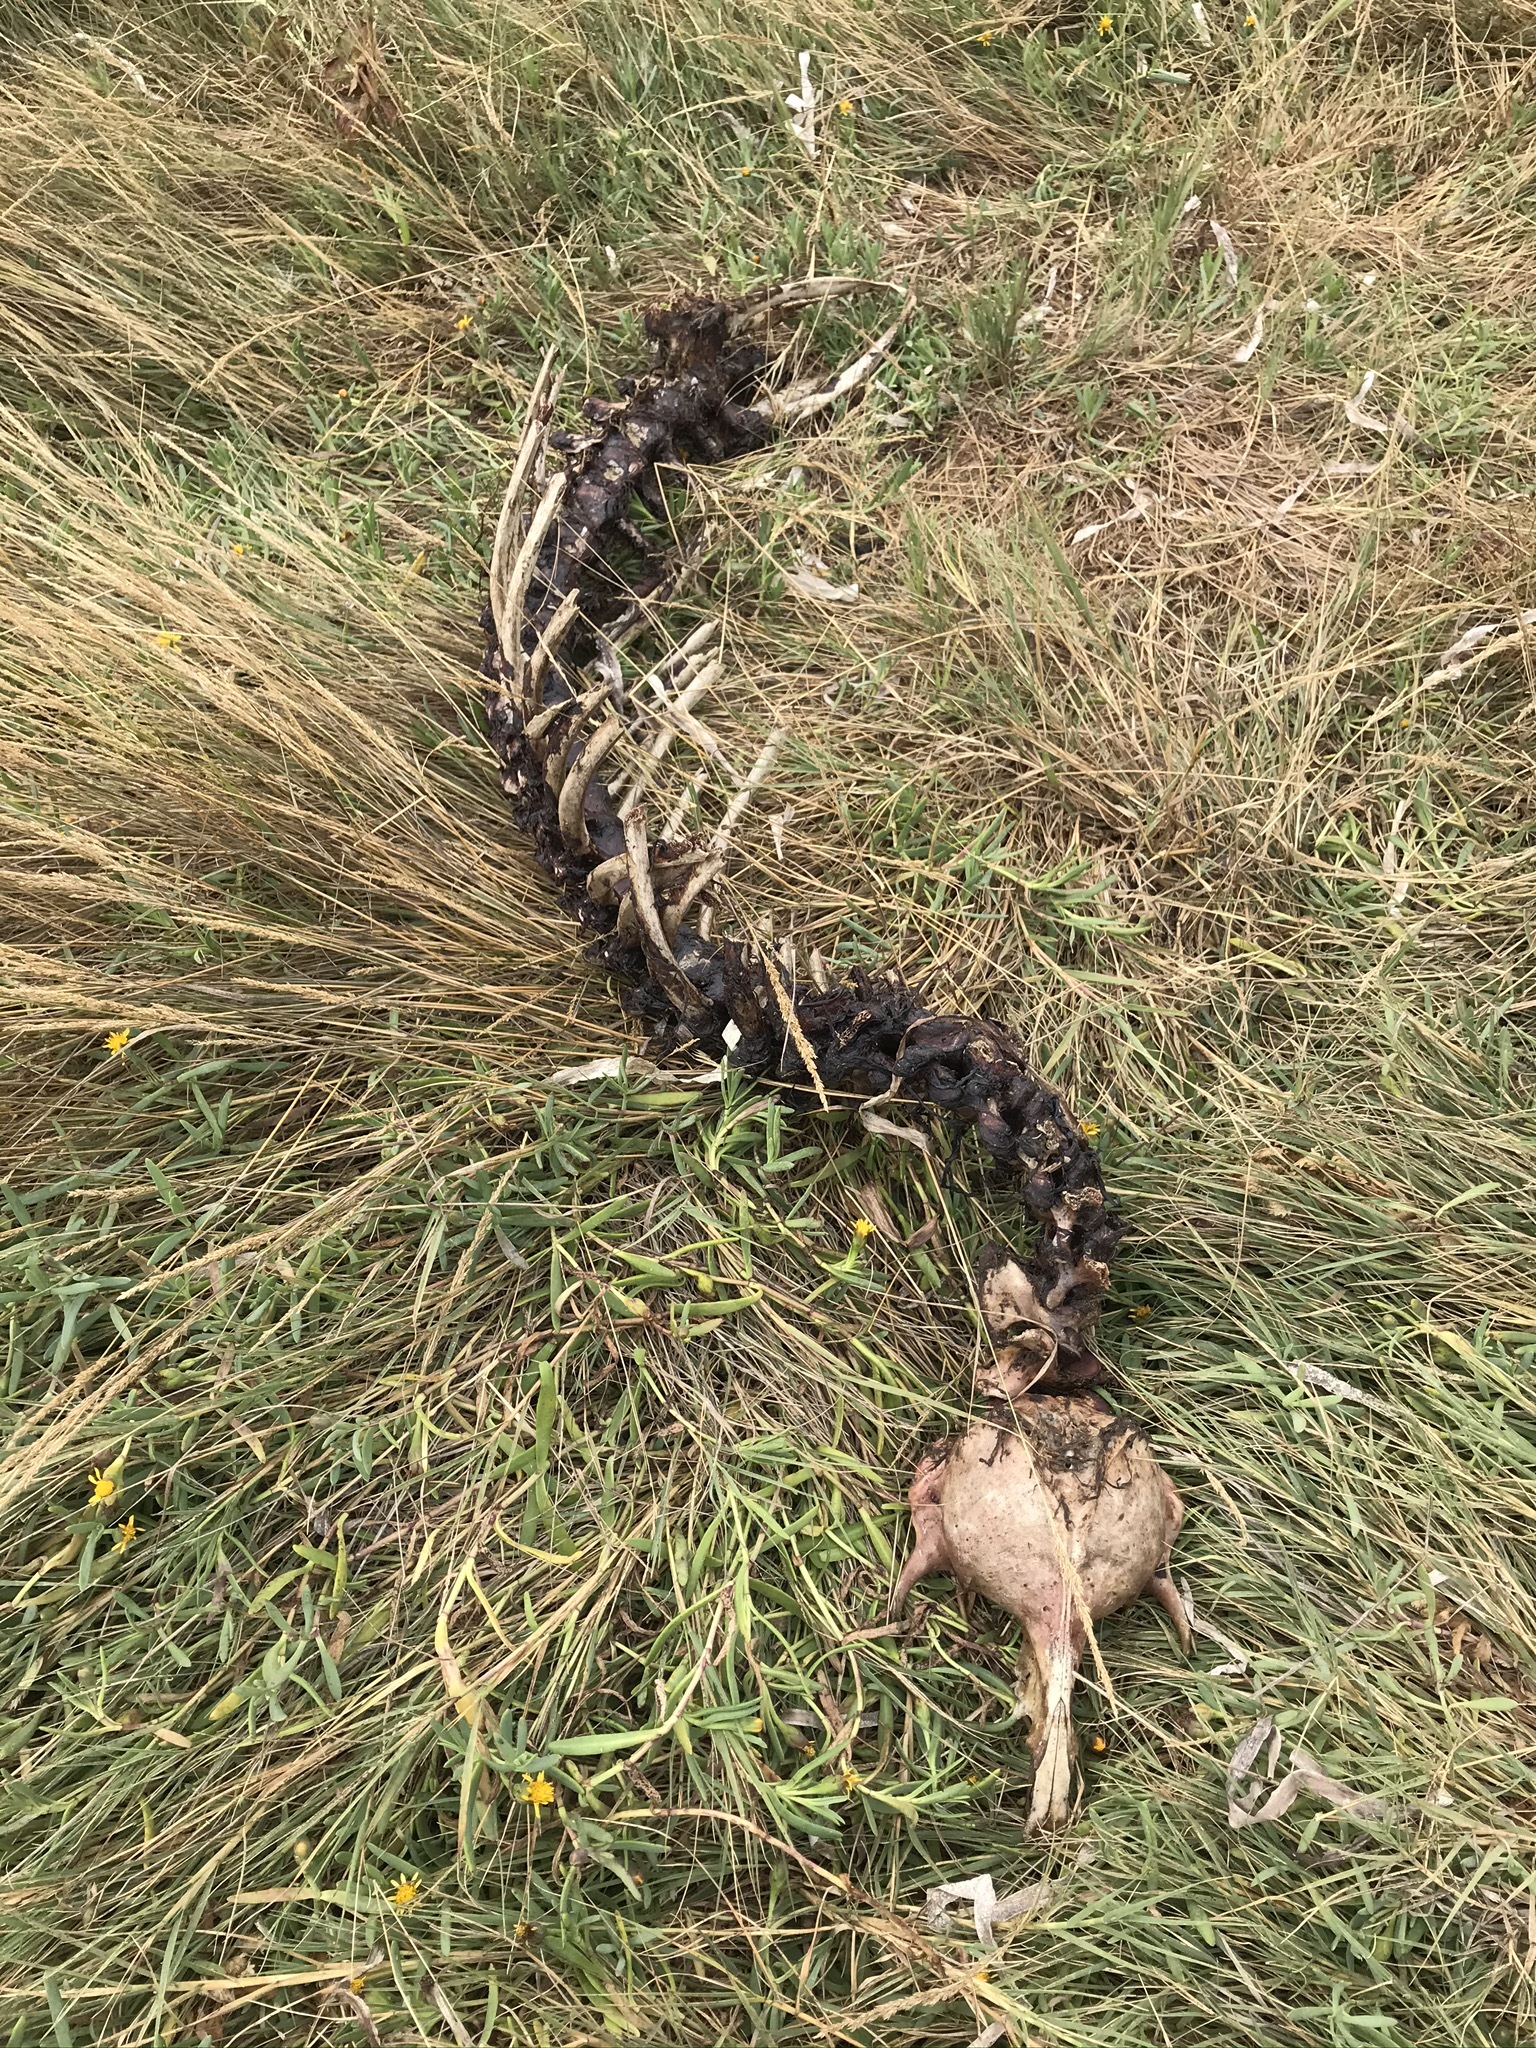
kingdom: Animalia
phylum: Chordata
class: Mammalia
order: Carnivora
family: Phocidae
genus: Phoca
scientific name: Phoca vitulina
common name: Harbor seal
